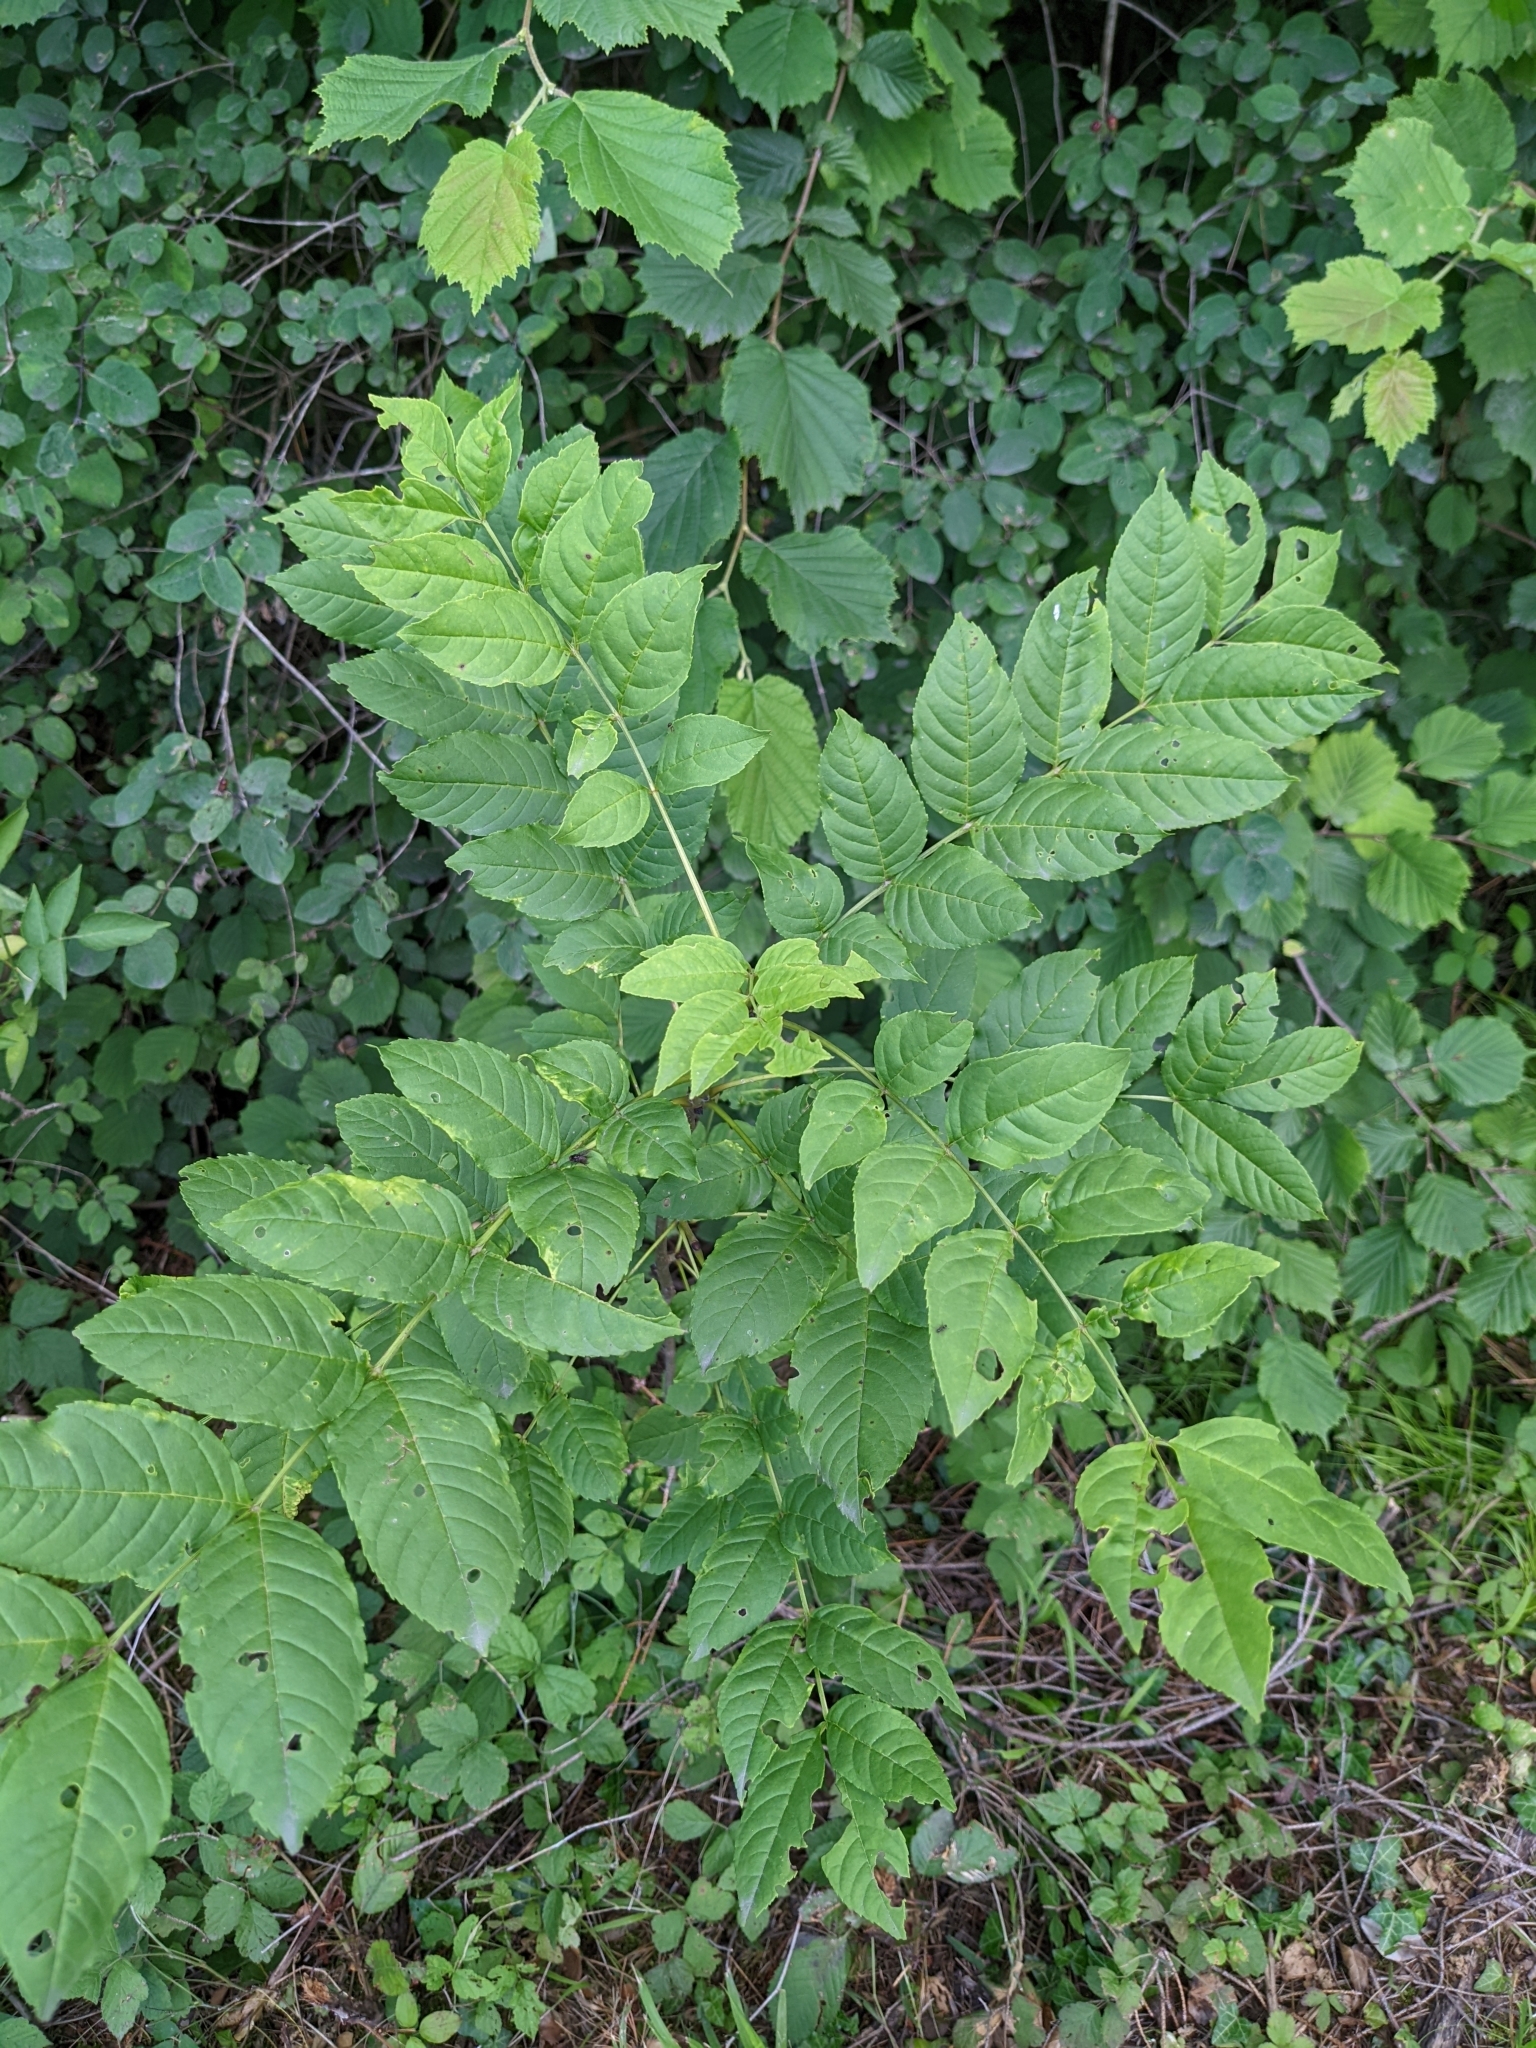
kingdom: Plantae
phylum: Tracheophyta
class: Magnoliopsida
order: Lamiales
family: Oleaceae
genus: Fraxinus
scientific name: Fraxinus excelsior
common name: European ash
